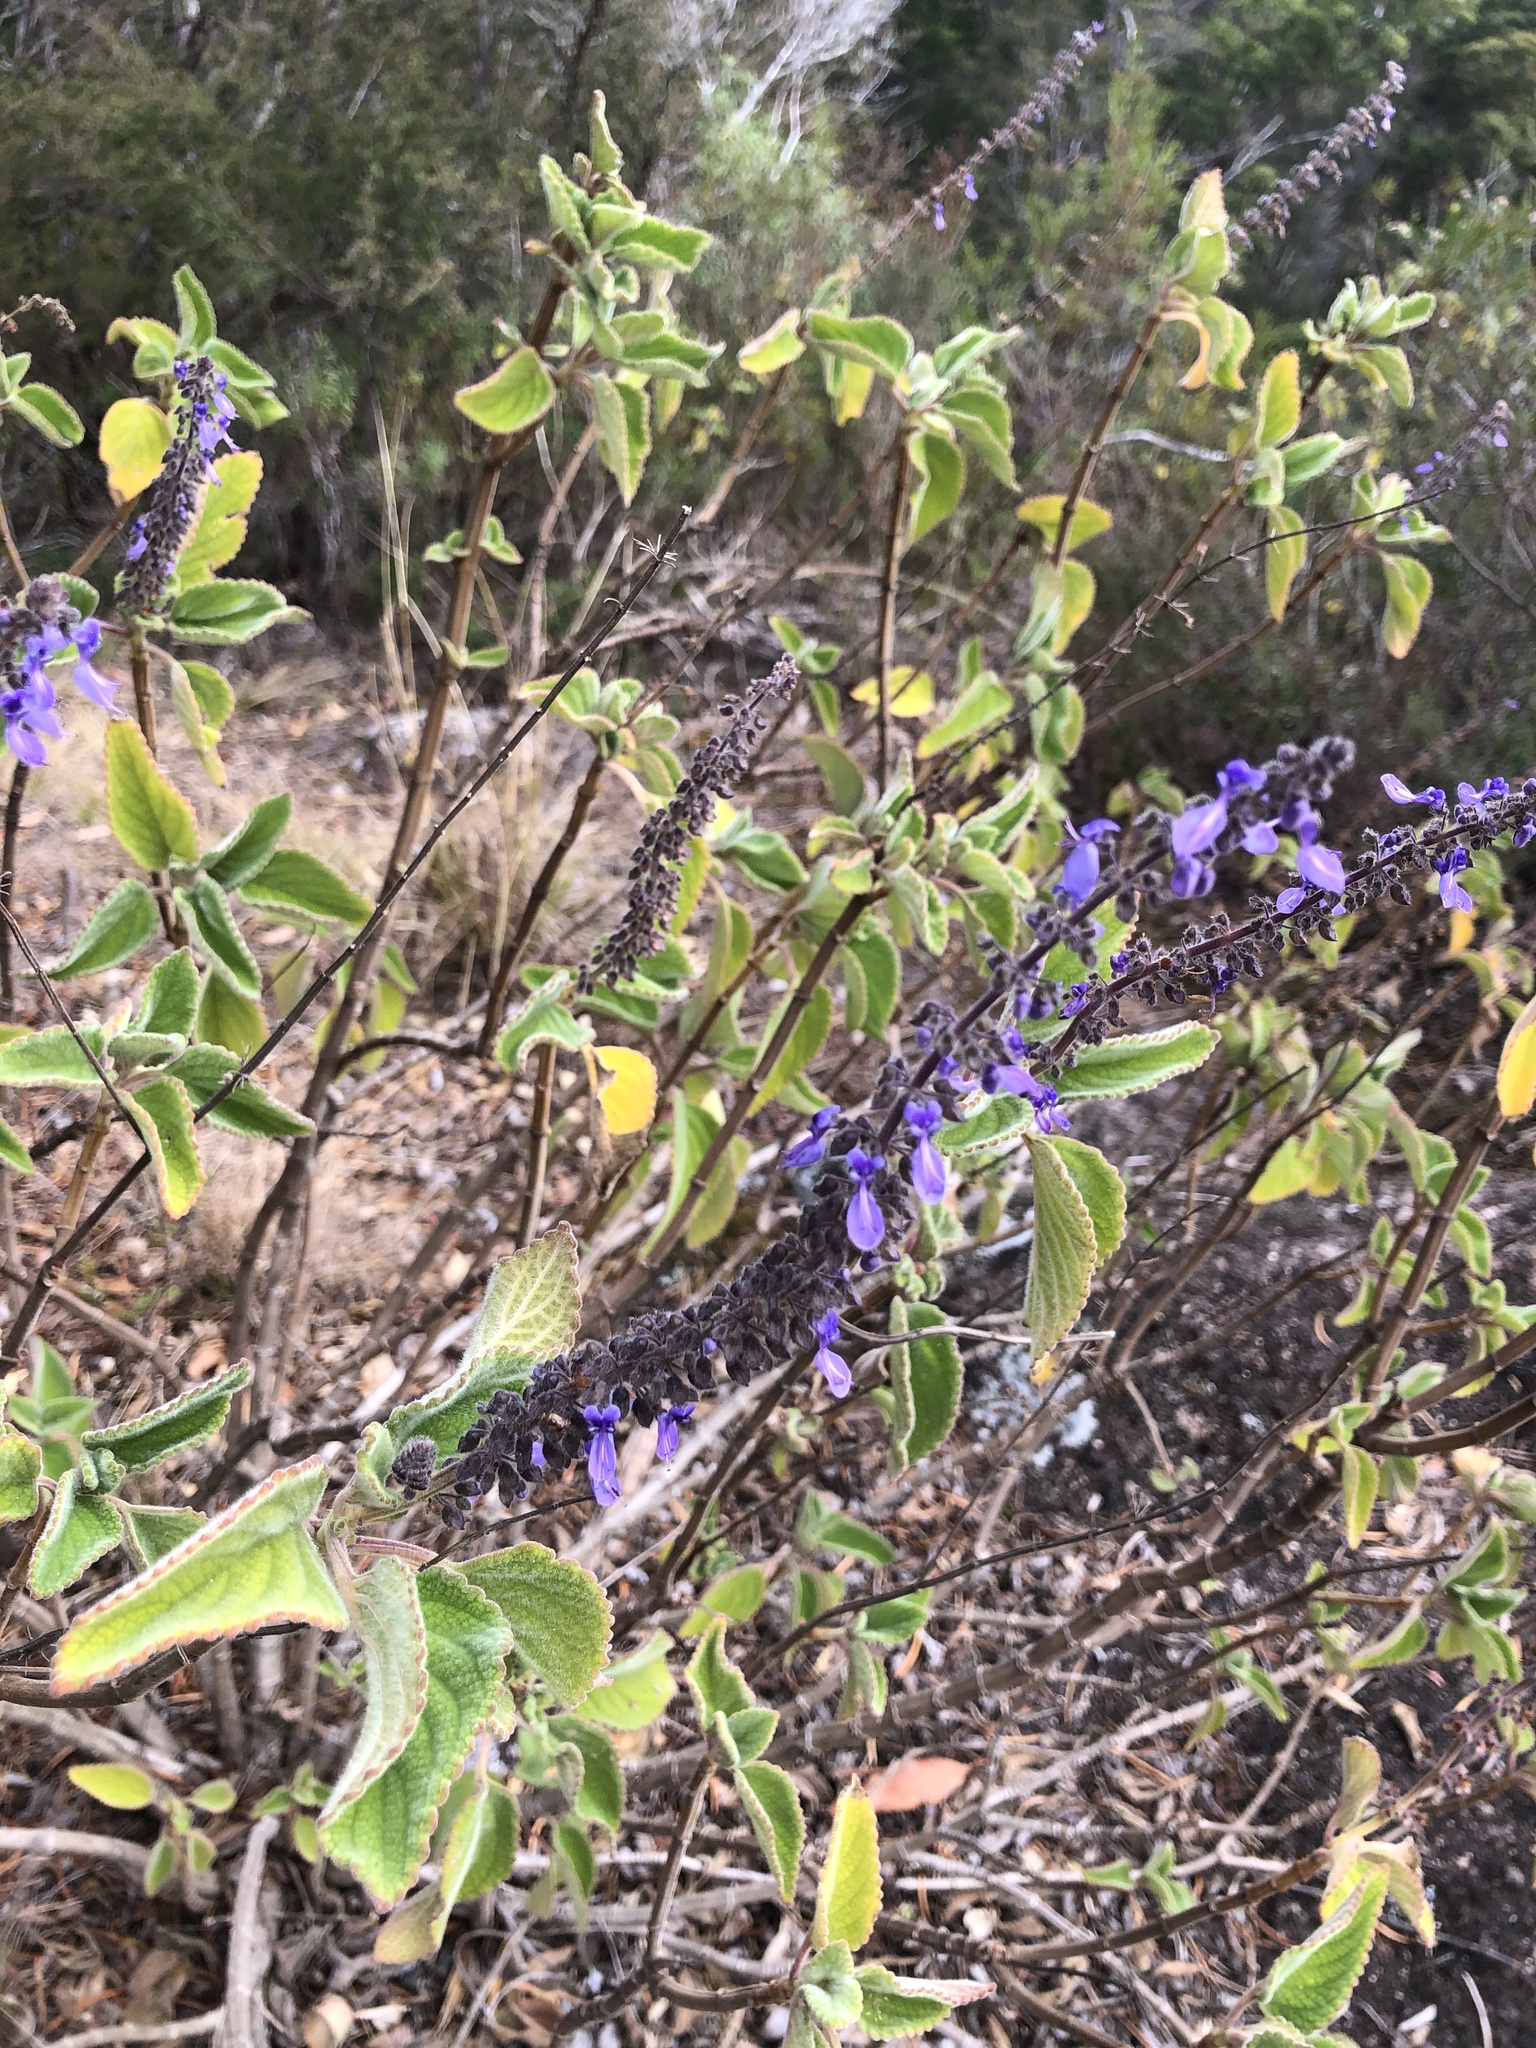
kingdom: Plantae
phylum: Tracheophyta
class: Magnoliopsida
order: Lamiales
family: Lamiaceae
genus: Coleus
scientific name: Coleus graveolens
